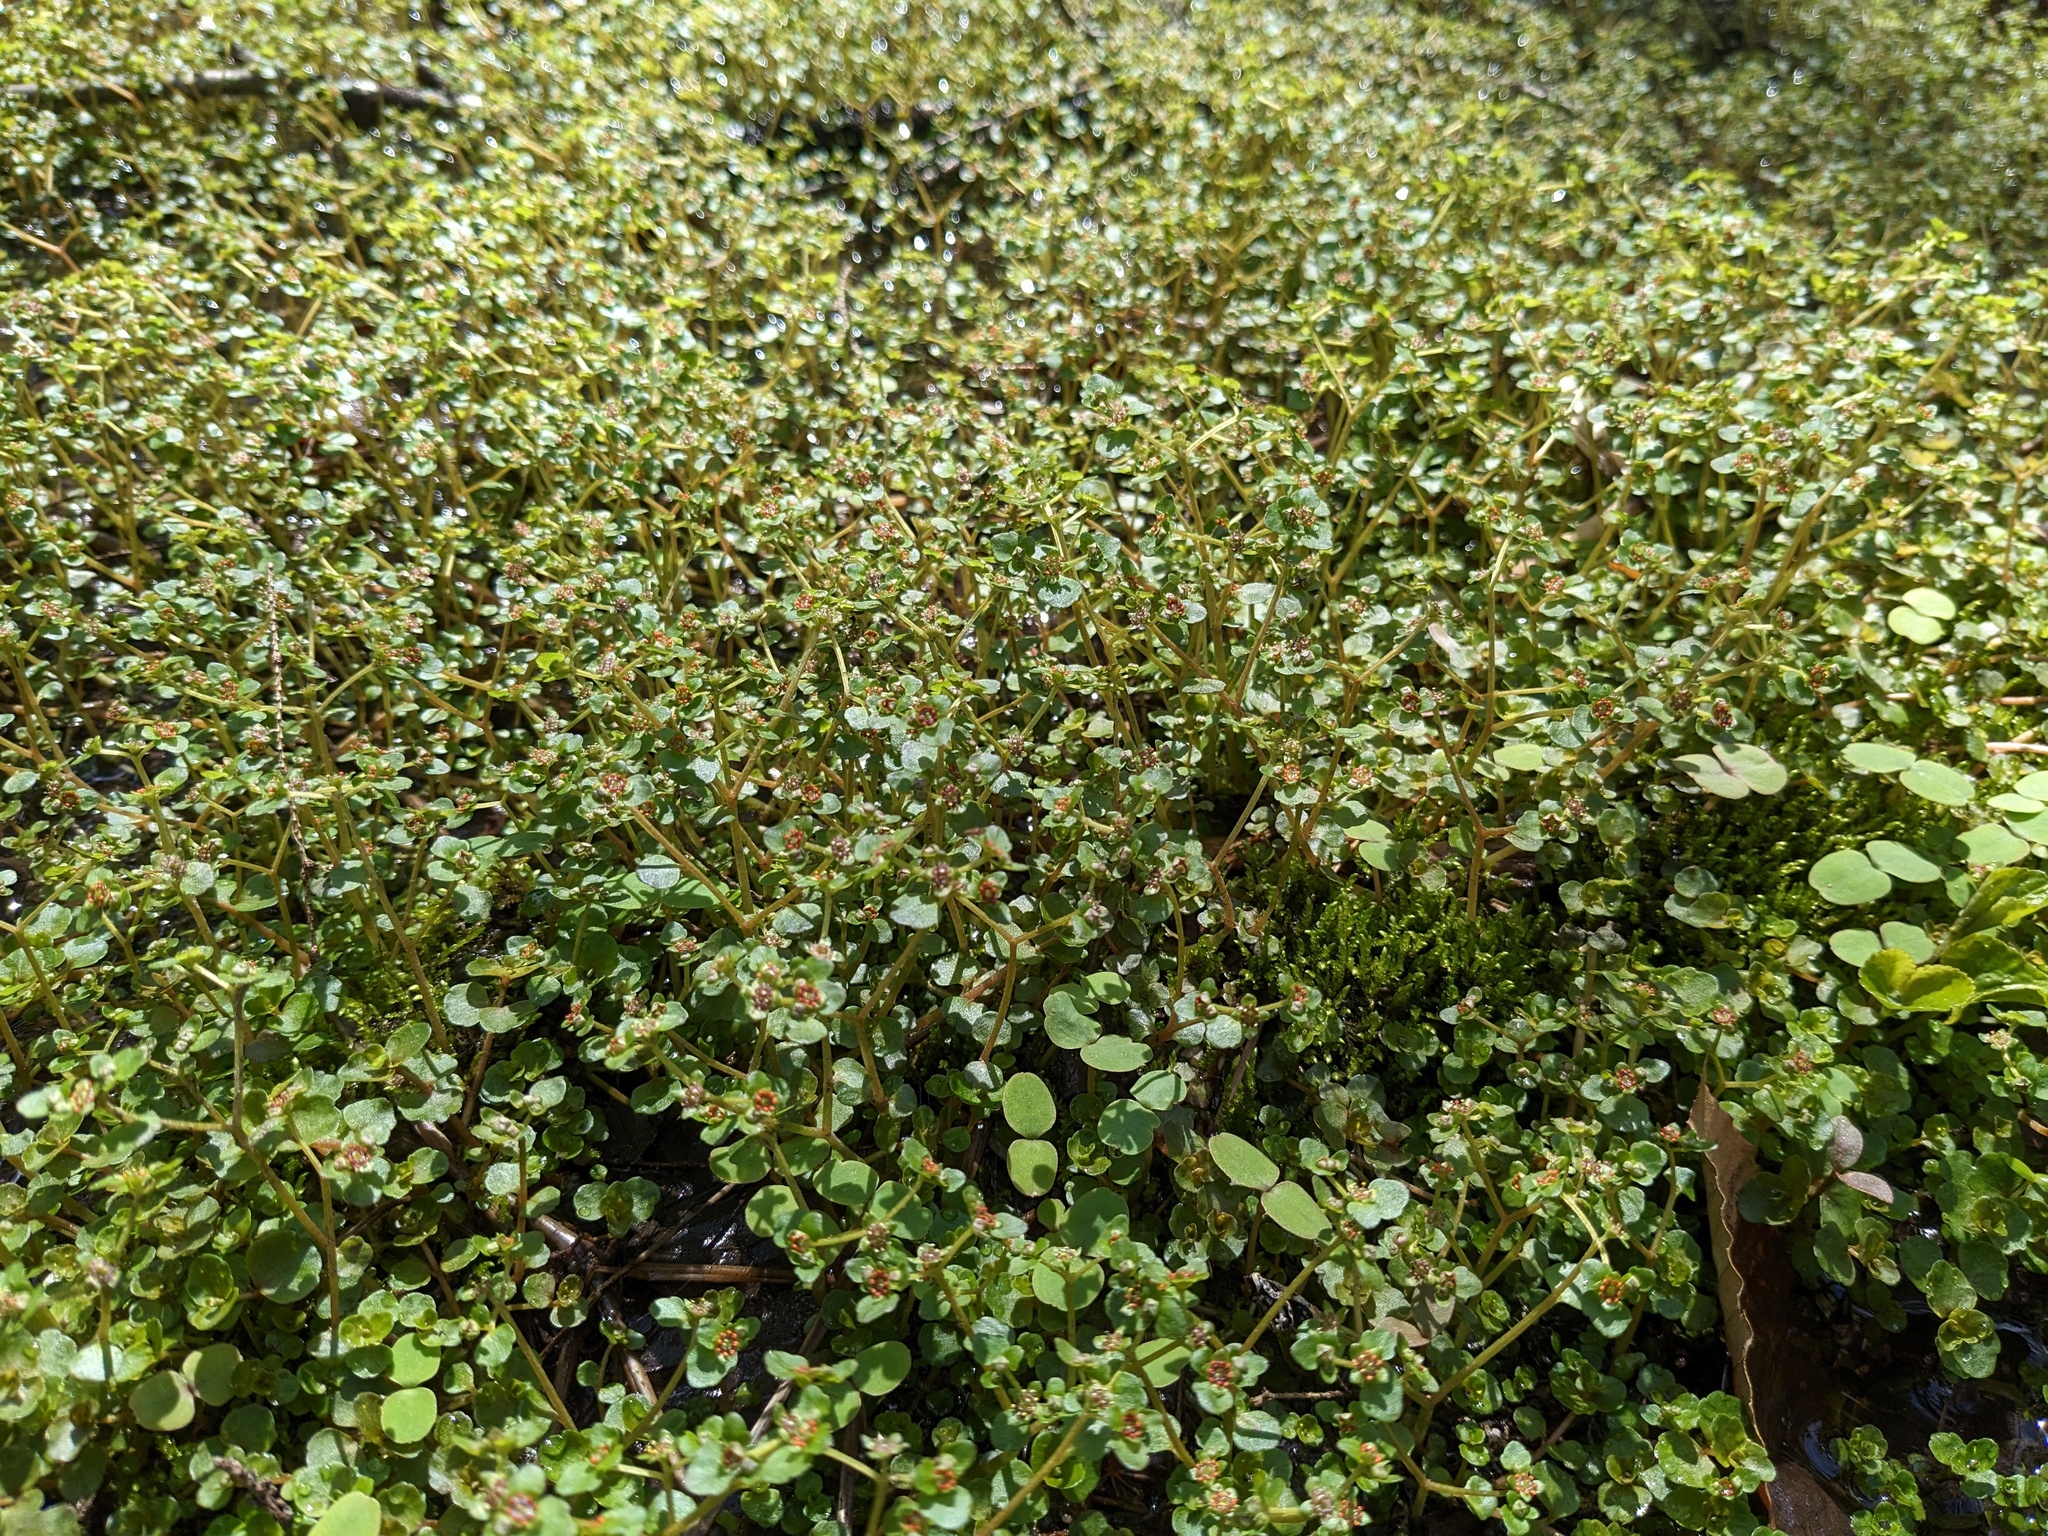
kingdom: Plantae
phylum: Tracheophyta
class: Magnoliopsida
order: Saxifragales
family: Saxifragaceae
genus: Chrysosplenium
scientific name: Chrysosplenium americanum
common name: American golden-saxifrage
